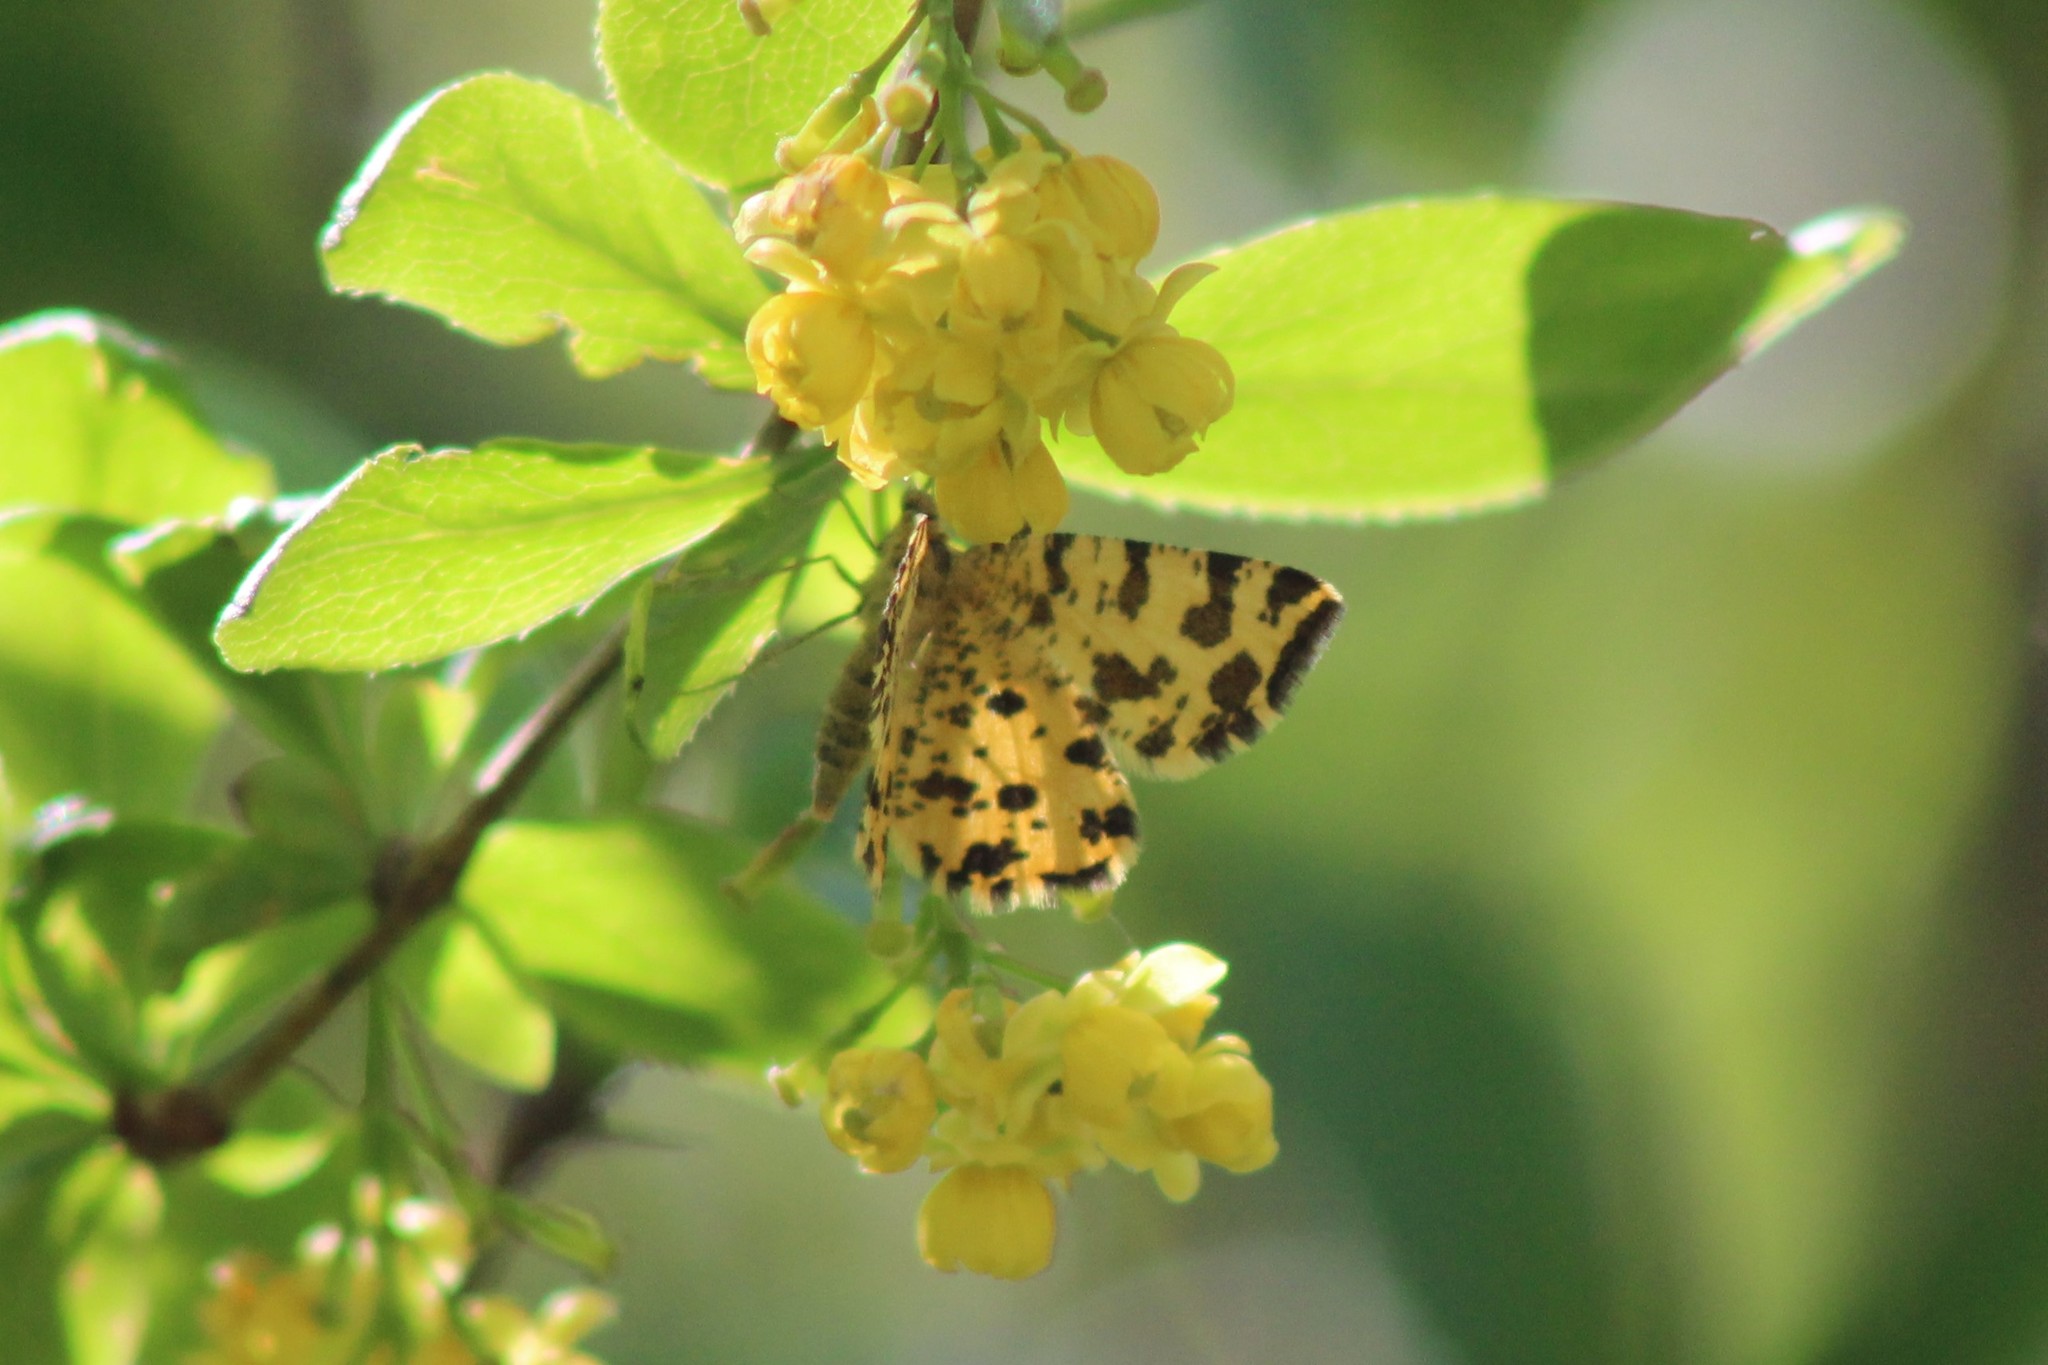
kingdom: Animalia
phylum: Arthropoda
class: Insecta
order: Lepidoptera
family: Geometridae
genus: Pseudopanthera
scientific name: Pseudopanthera macularia
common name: Speckled yellow
